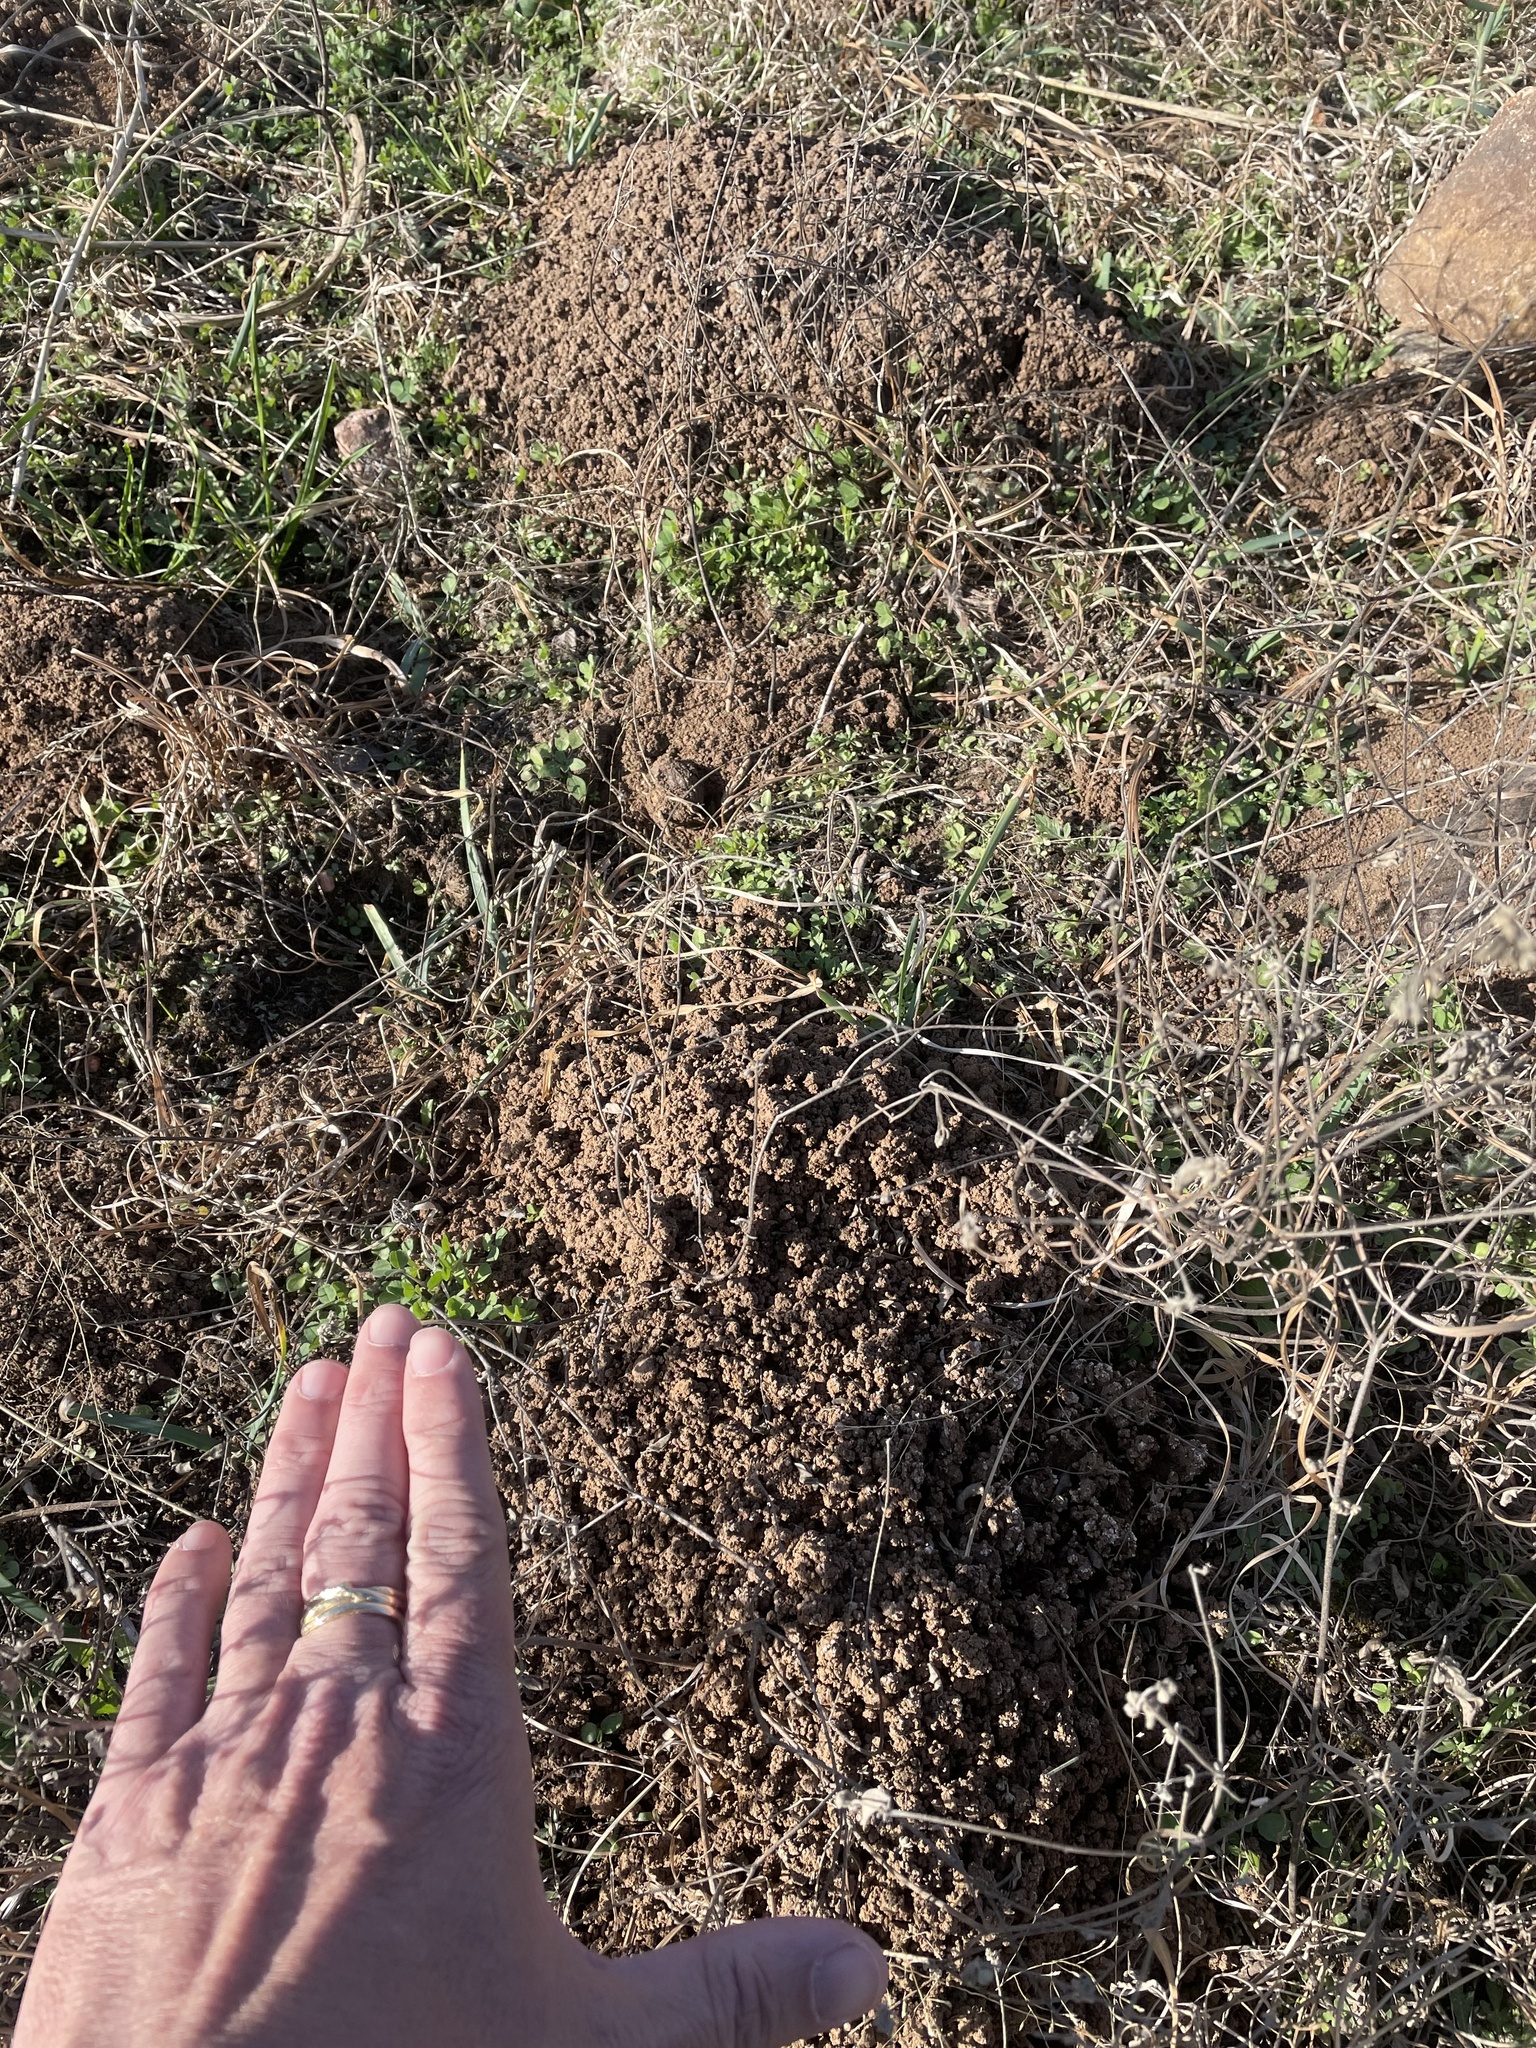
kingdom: Animalia
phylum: Chordata
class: Mammalia
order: Rodentia
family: Geomyidae
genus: Geomys
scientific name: Geomys texensis
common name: Llano pocket gopher
